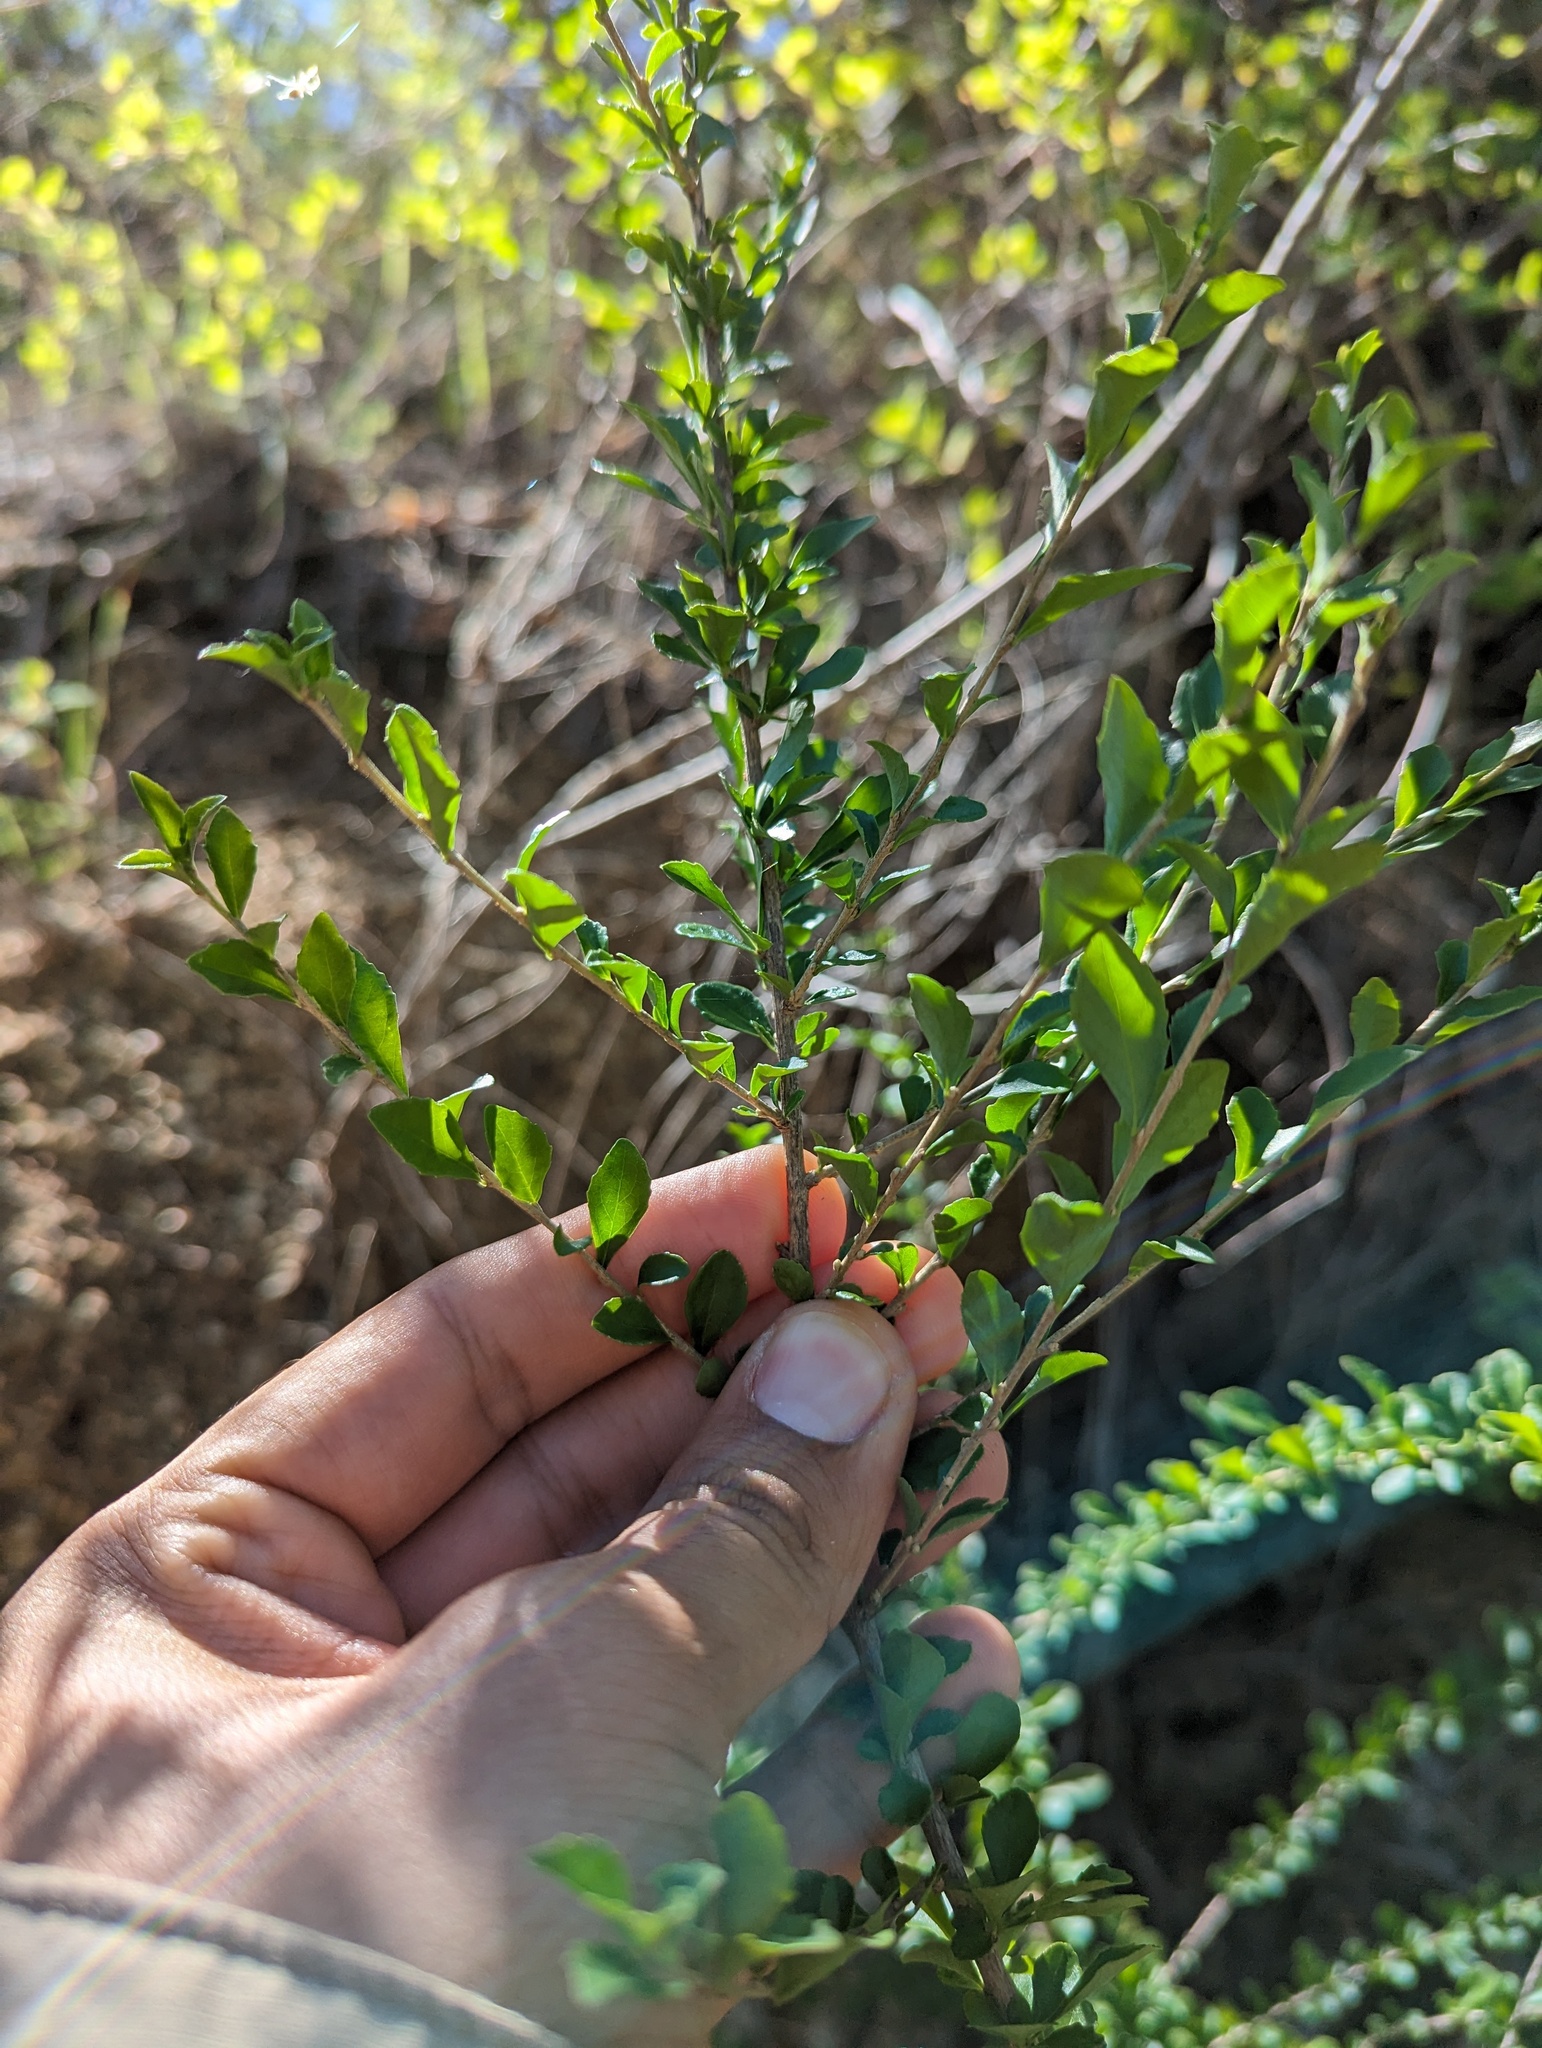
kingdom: Plantae
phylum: Tracheophyta
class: Magnoliopsida
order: Malpighiales
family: Violaceae
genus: Ixchelia
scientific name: Ixchelia mexicana
